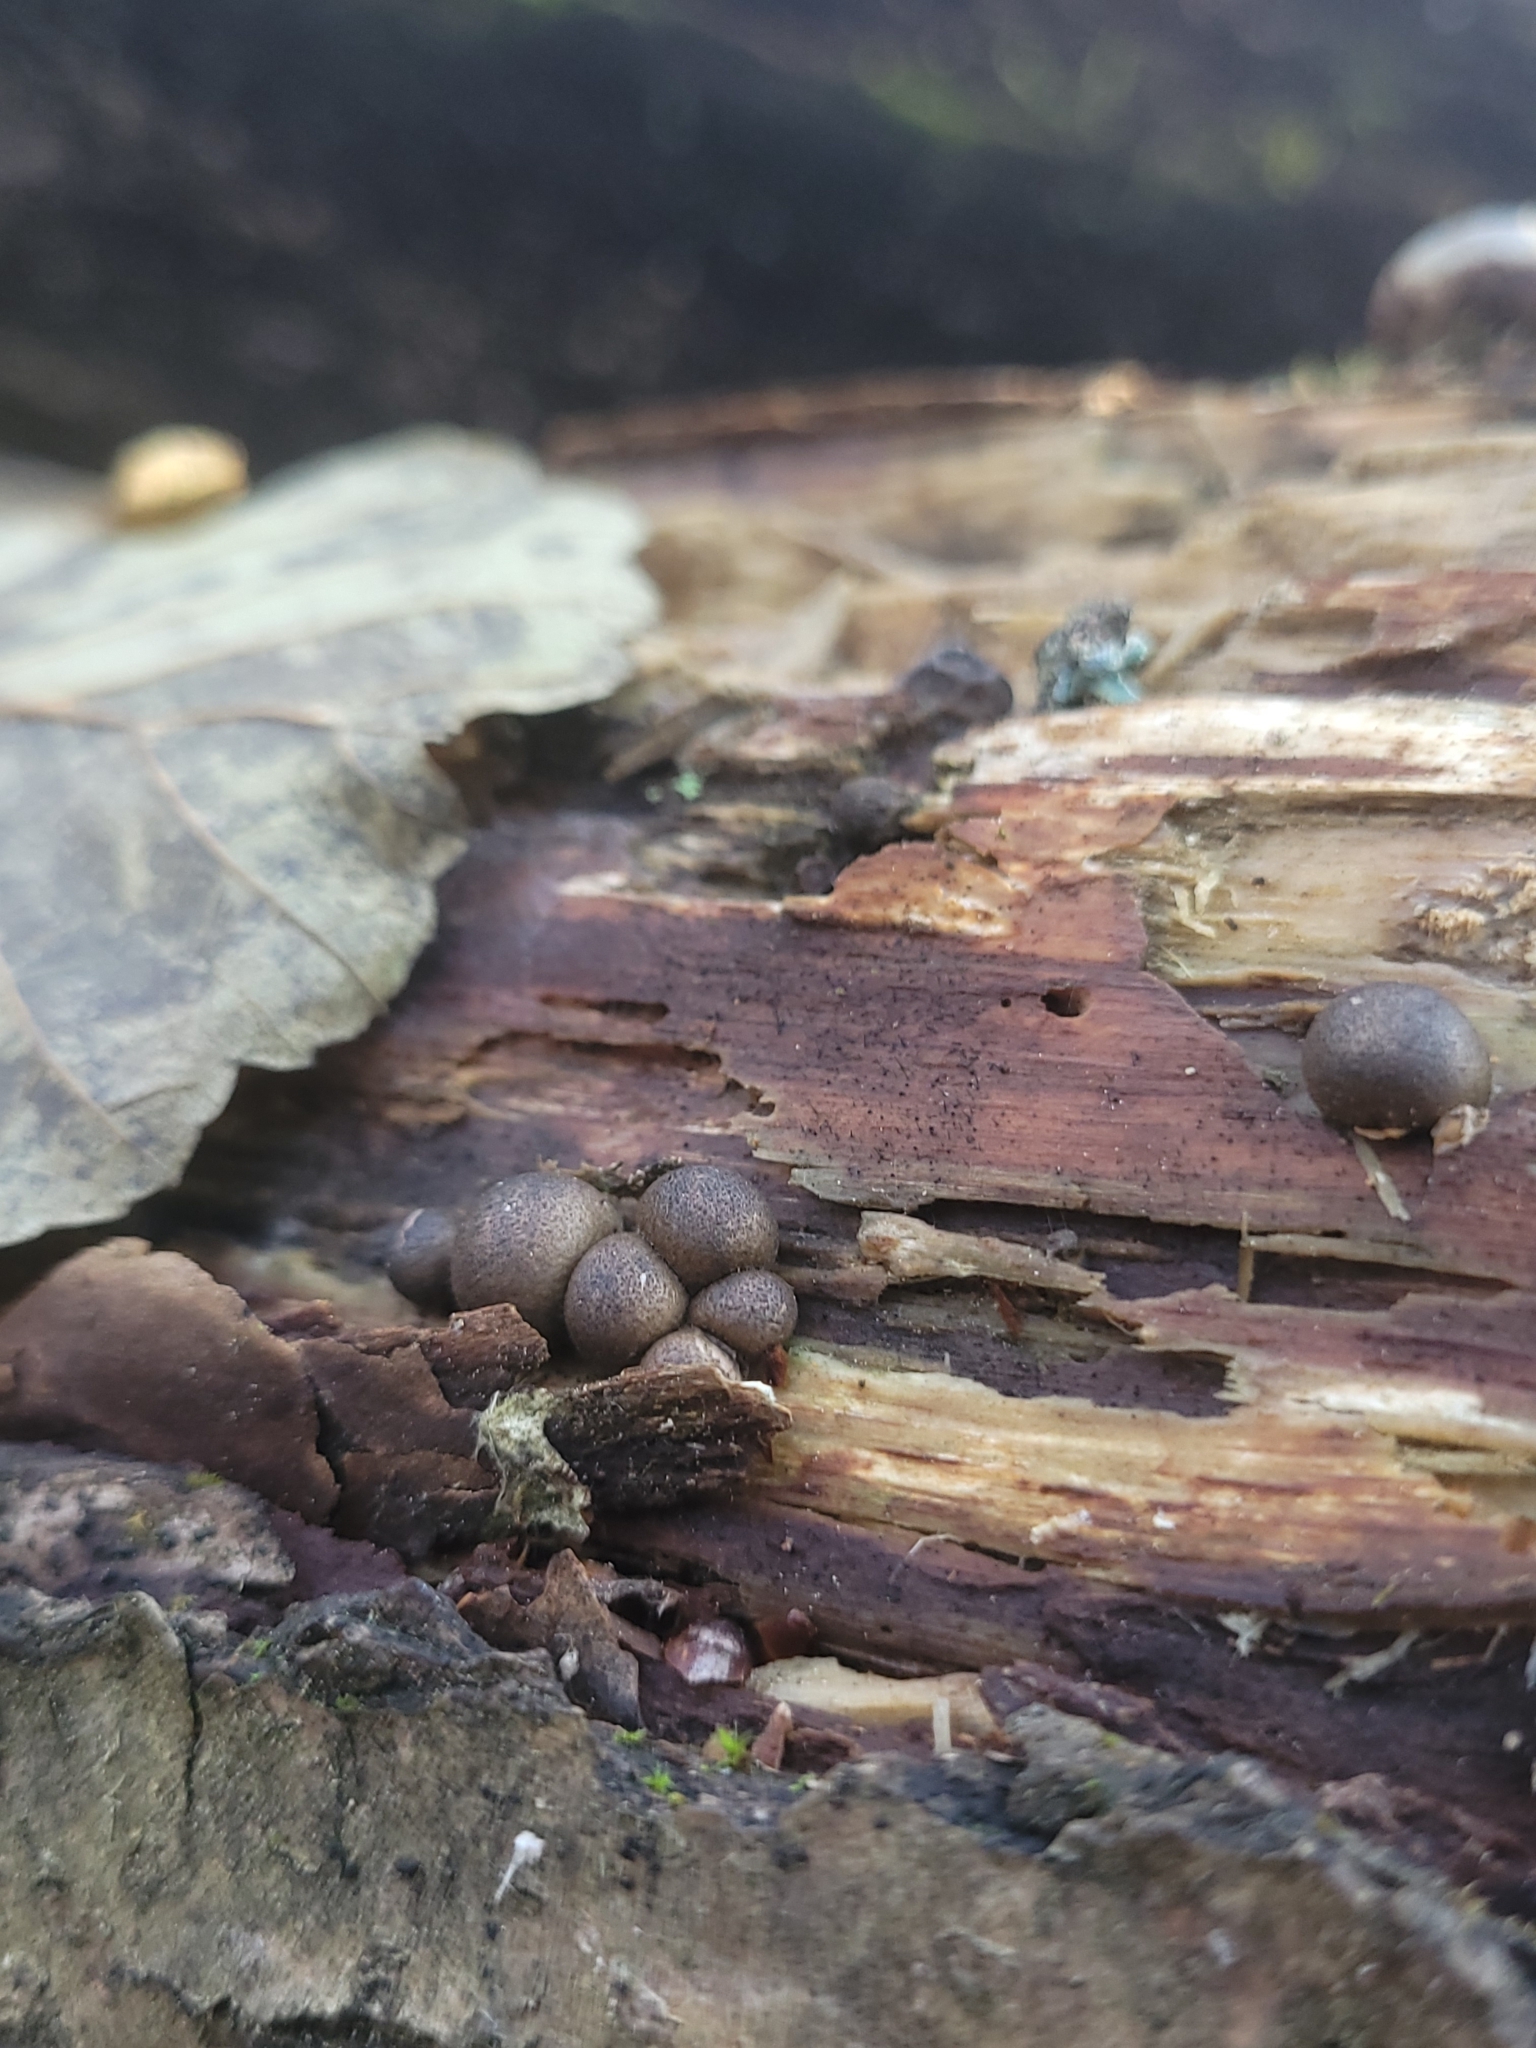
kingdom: Protozoa
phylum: Mycetozoa
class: Myxomycetes
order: Cribrariales
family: Tubiferaceae
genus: Lycogala
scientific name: Lycogala epidendrum
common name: Wolf's milk
